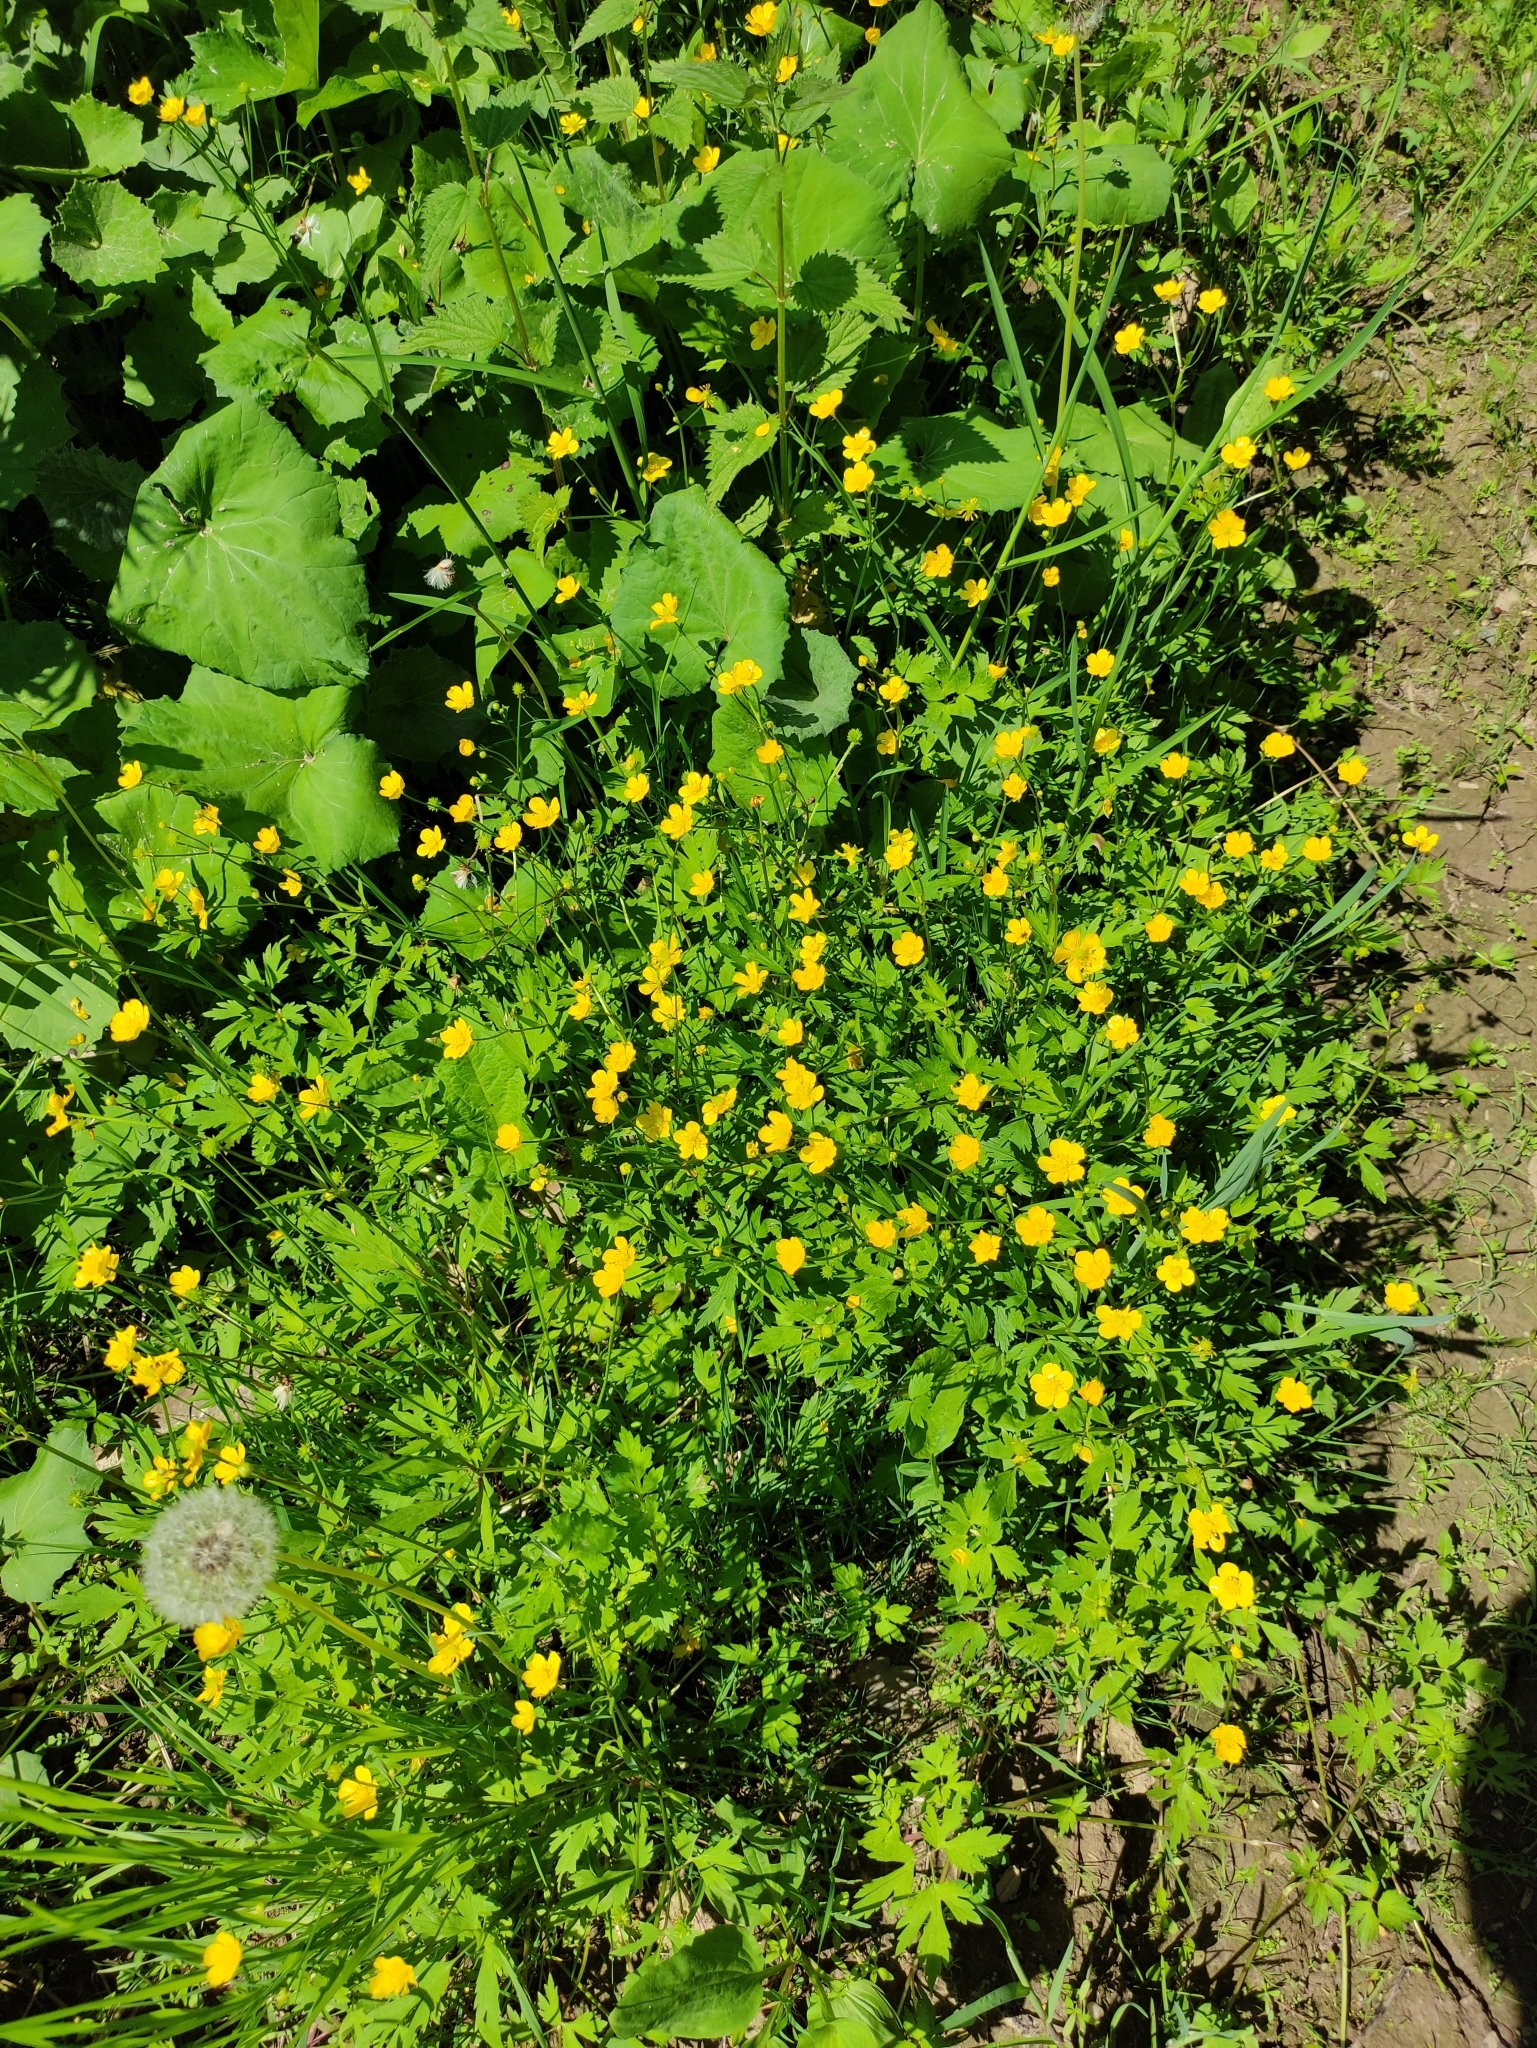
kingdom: Plantae
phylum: Tracheophyta
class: Magnoliopsida
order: Ranunculales
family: Ranunculaceae
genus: Ranunculus
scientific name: Ranunculus repens
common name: Creeping buttercup
